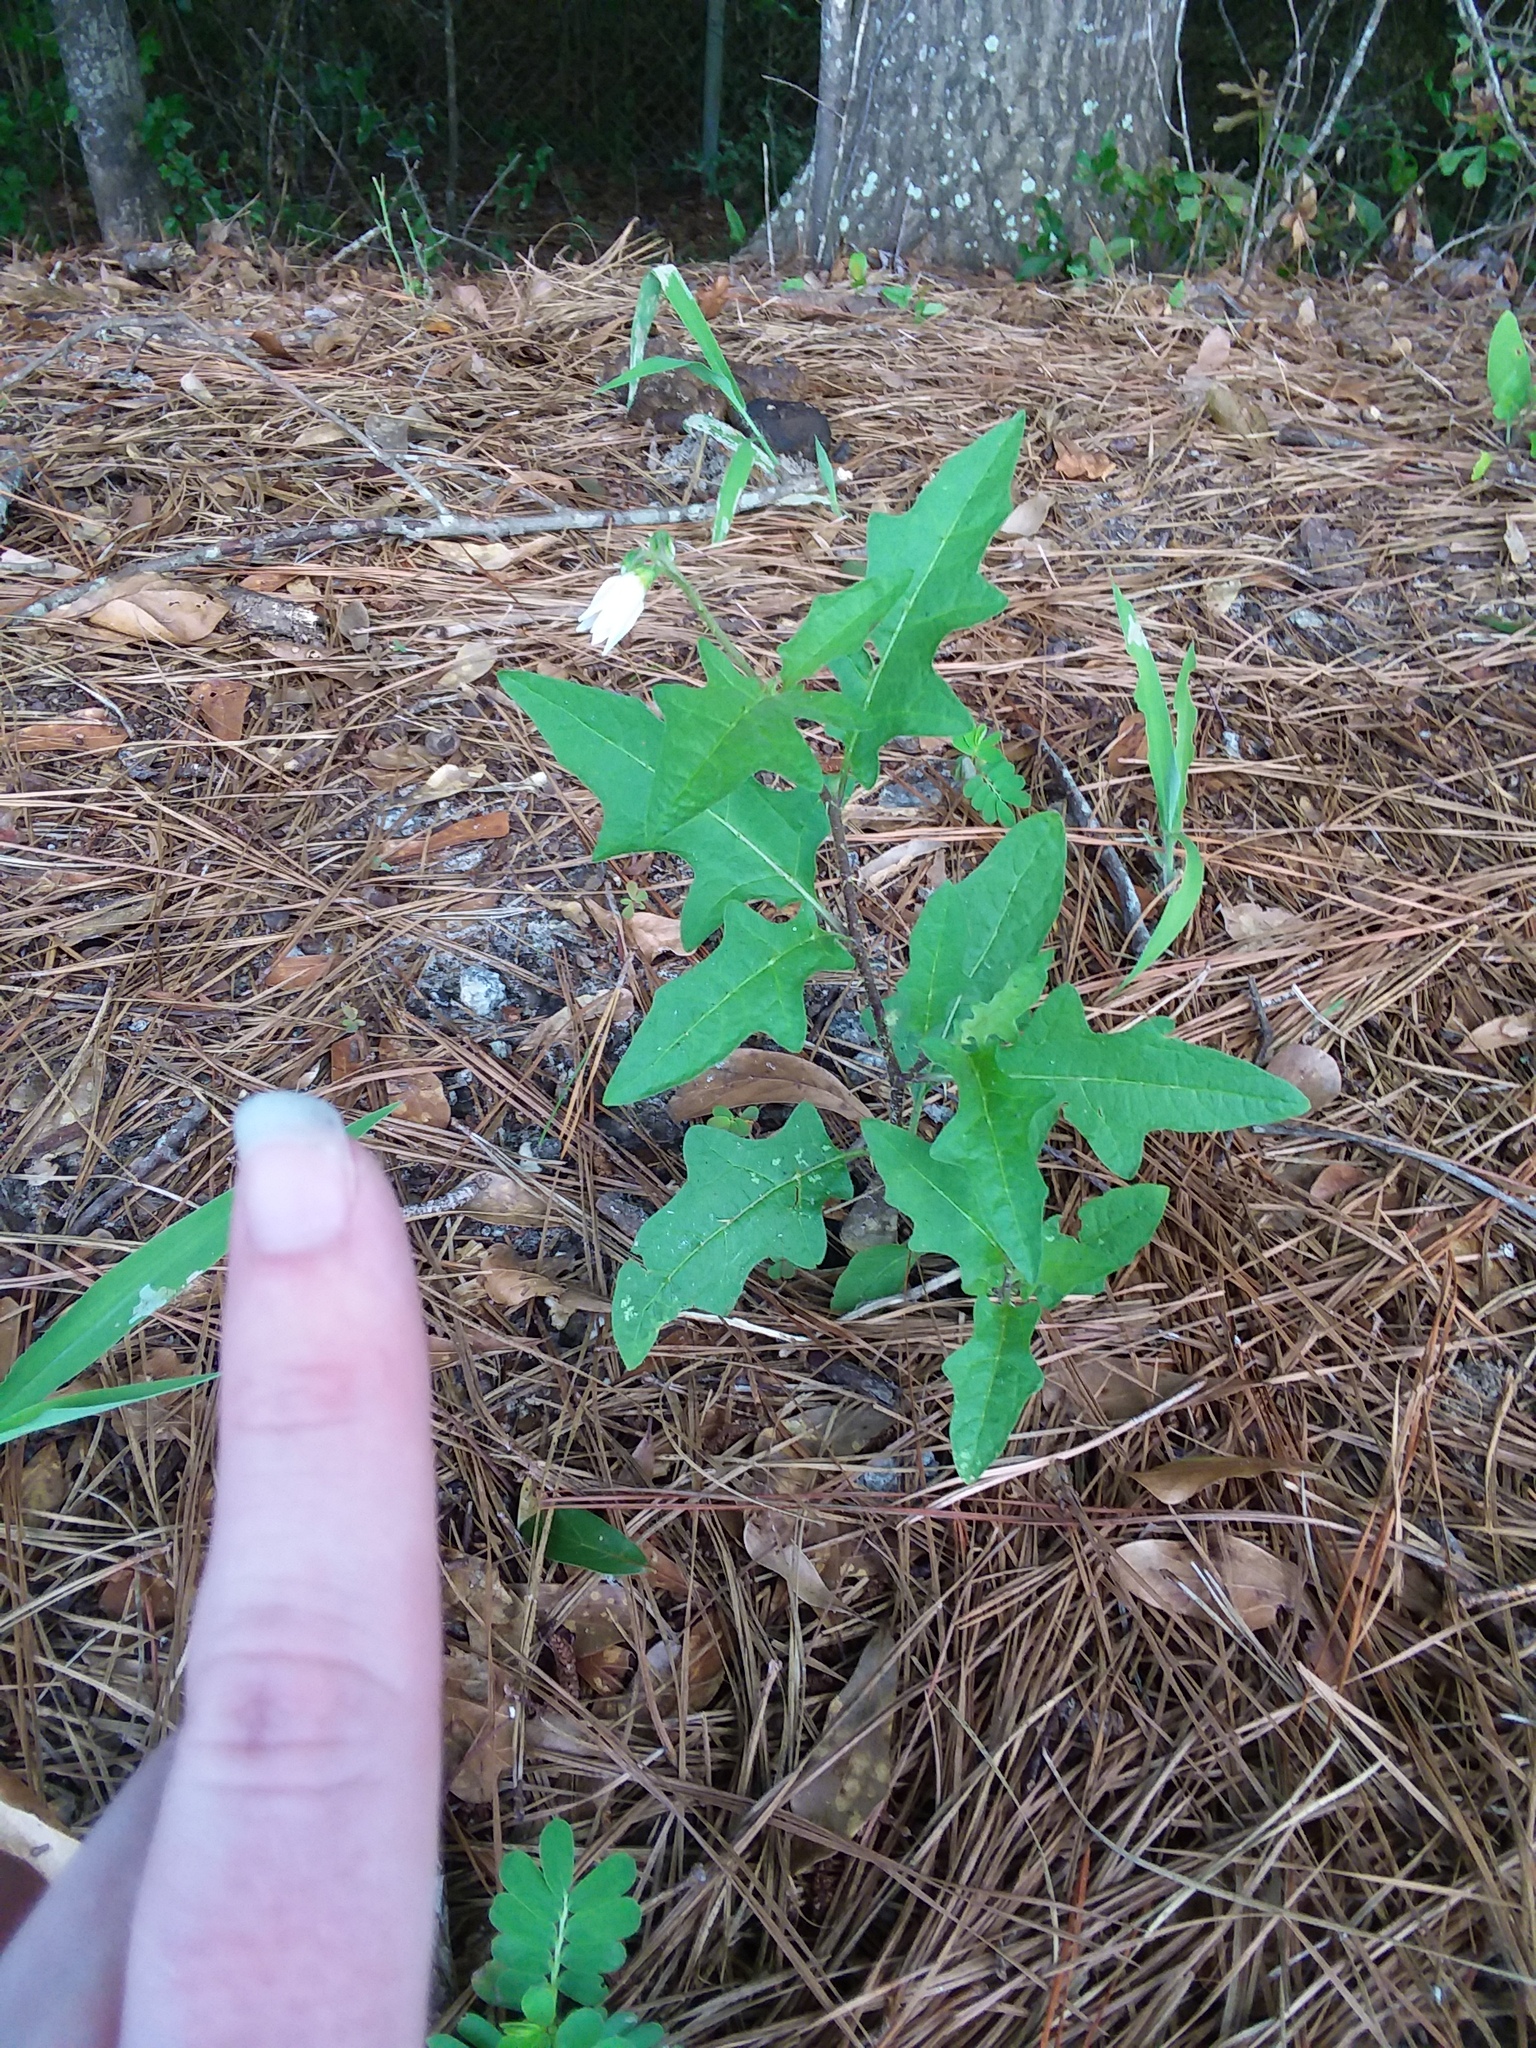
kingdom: Plantae
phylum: Tracheophyta
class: Magnoliopsida
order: Solanales
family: Solanaceae
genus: Solanum
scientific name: Solanum carolinense
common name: Horse-nettle
